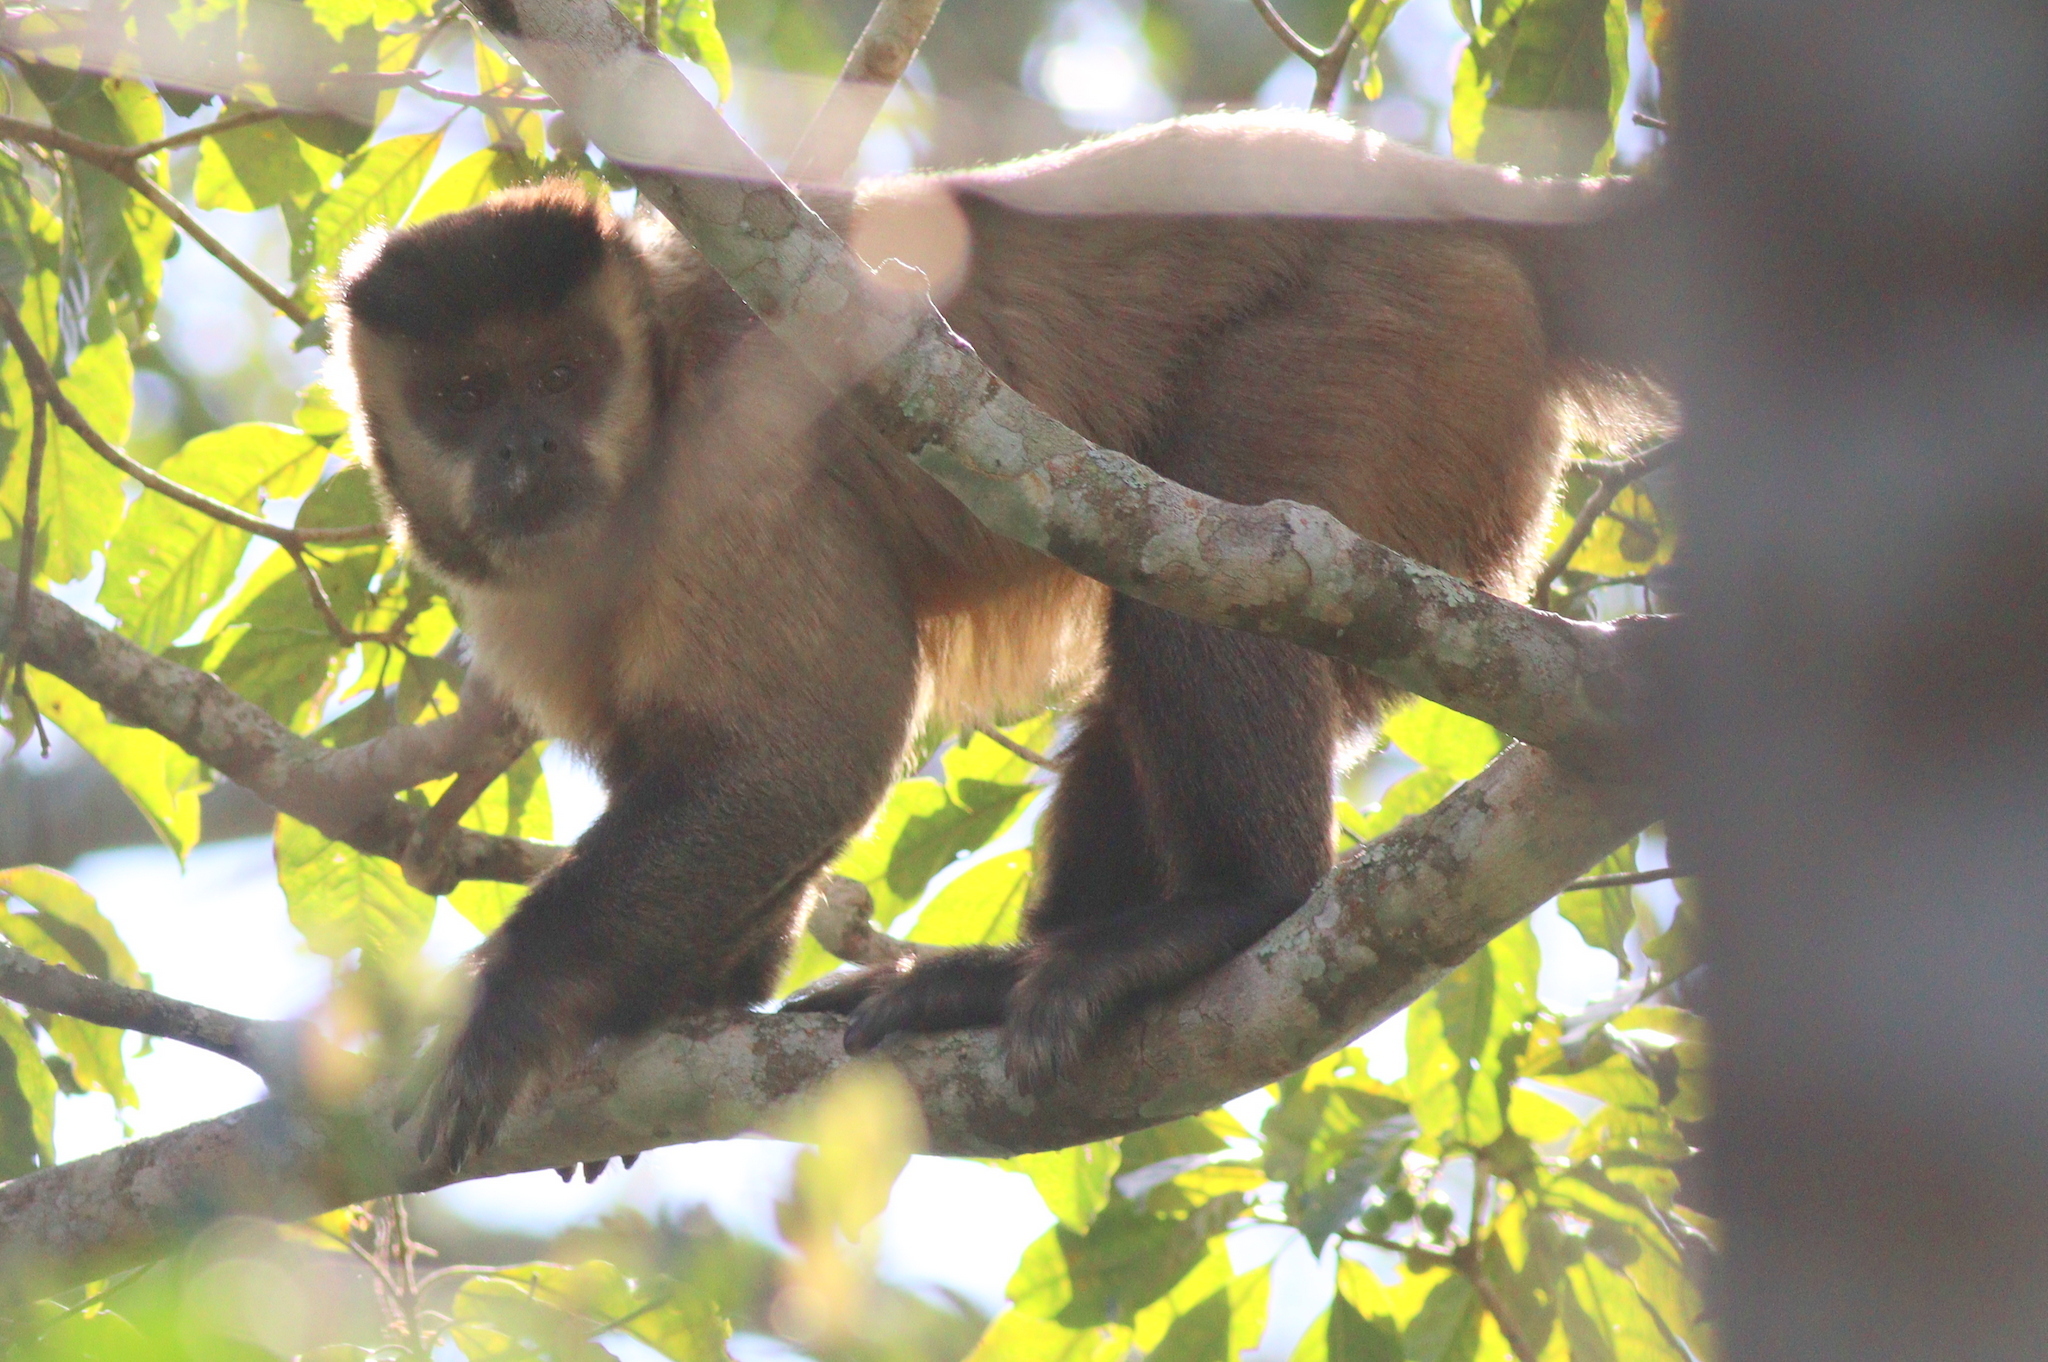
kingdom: Animalia
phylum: Chordata
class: Mammalia
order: Primates
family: Cebidae
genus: Sapajus
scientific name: Sapajus cay
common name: Hooded capuchin
